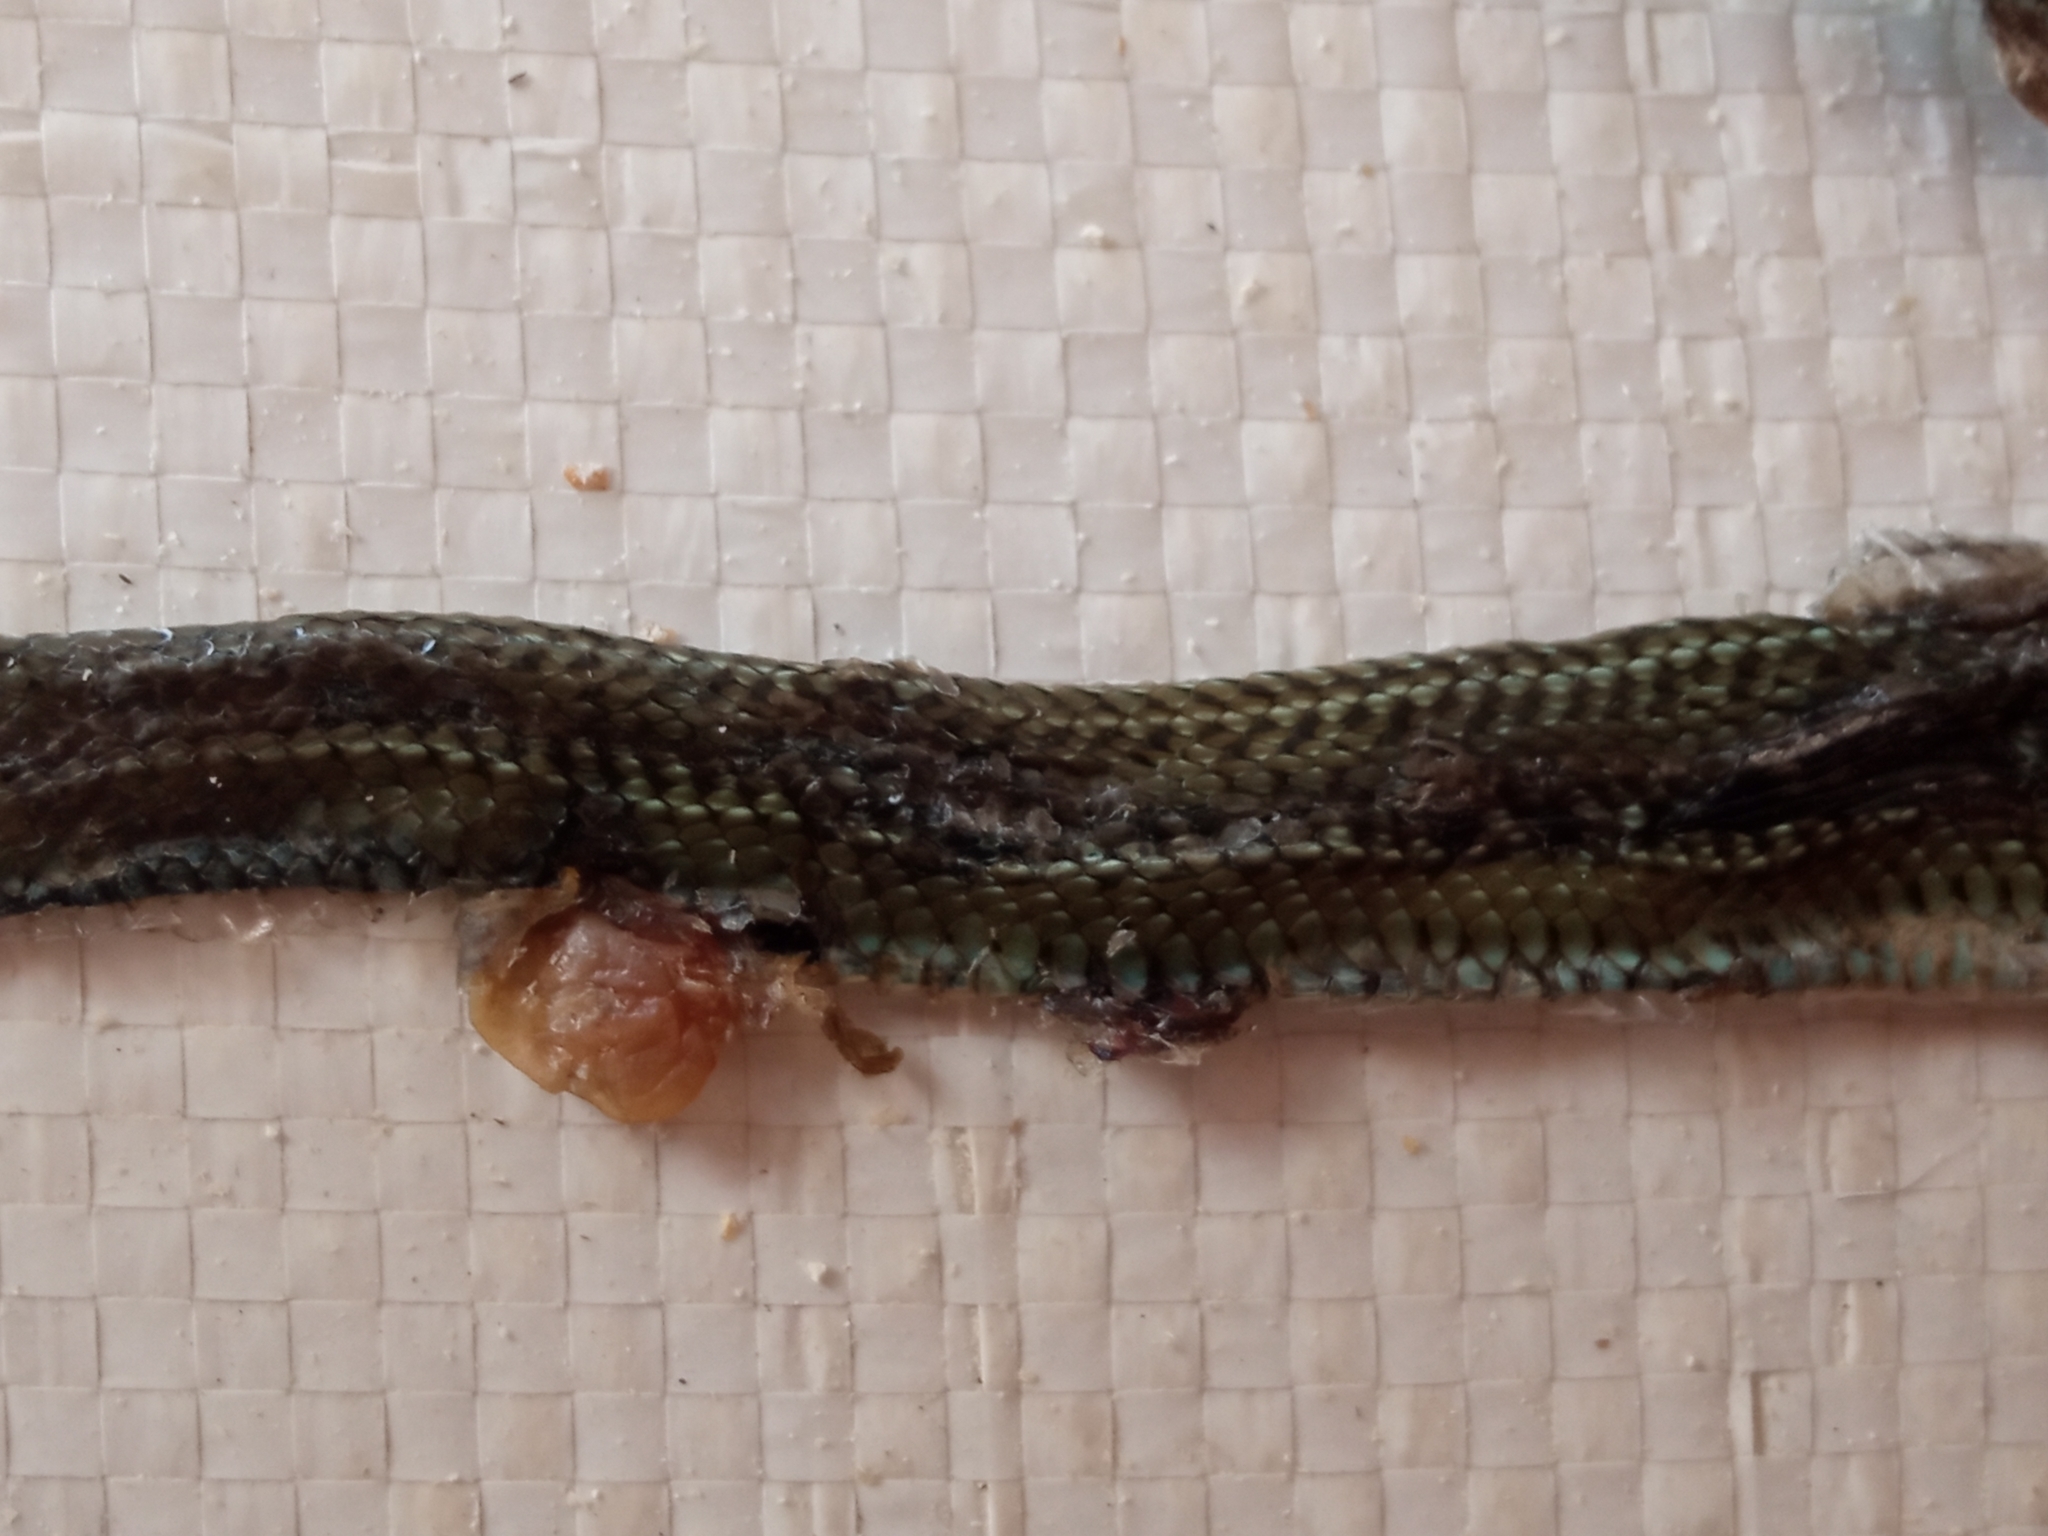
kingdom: Animalia
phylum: Chordata
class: Squamata
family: Colubridae
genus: Philodryas
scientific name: Philodryas patagoniensis
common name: Patagonia green racer
